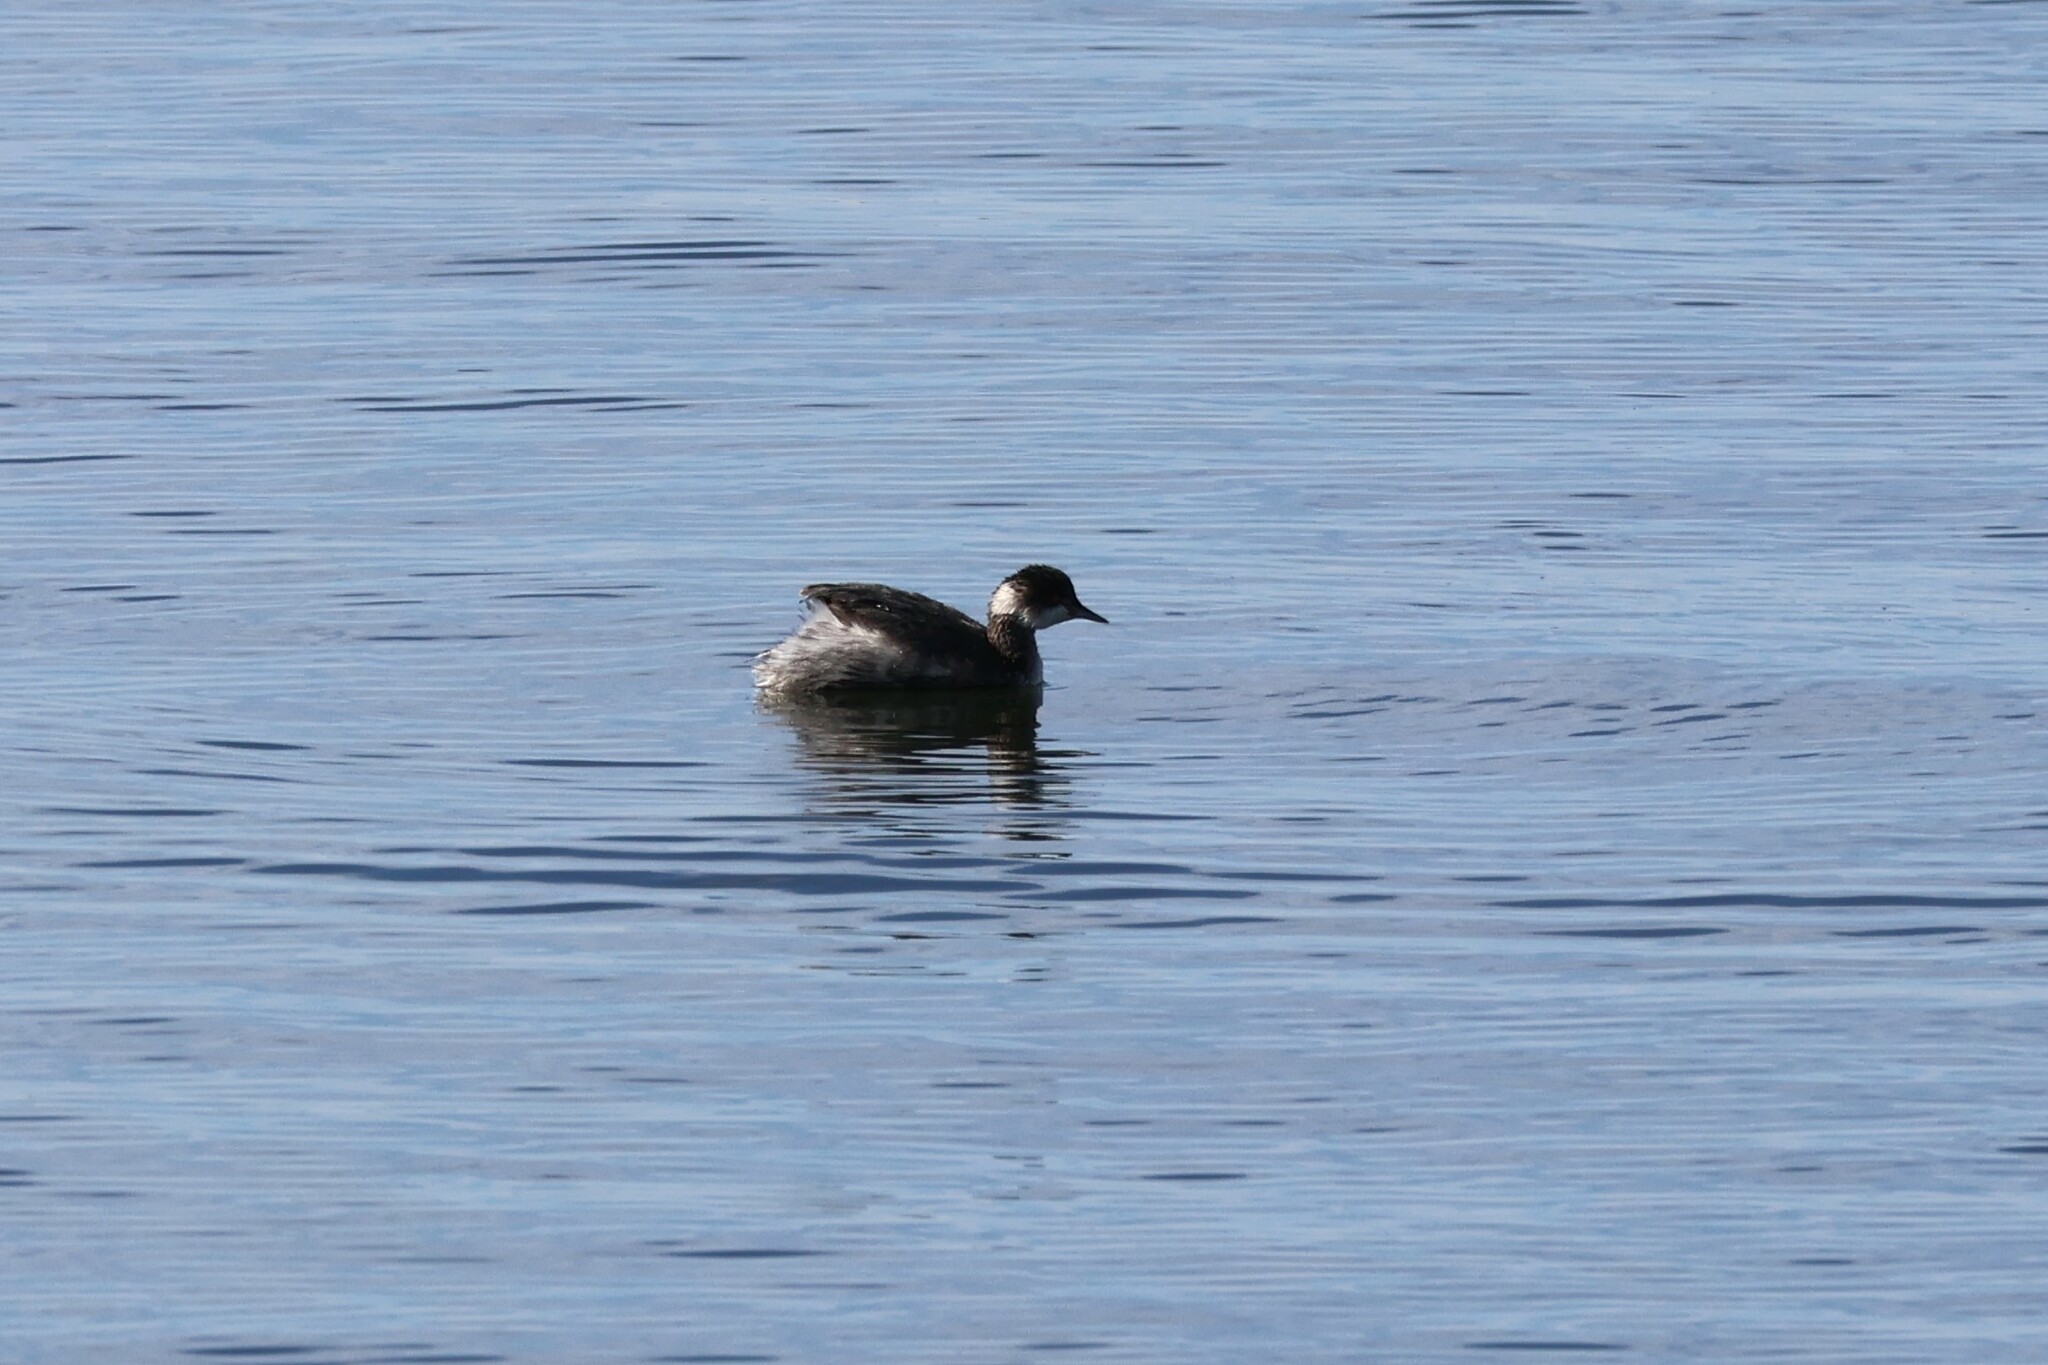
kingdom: Animalia
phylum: Chordata
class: Aves
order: Podicipediformes
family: Podicipedidae
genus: Podiceps
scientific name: Podiceps nigricollis
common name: Black-necked grebe
